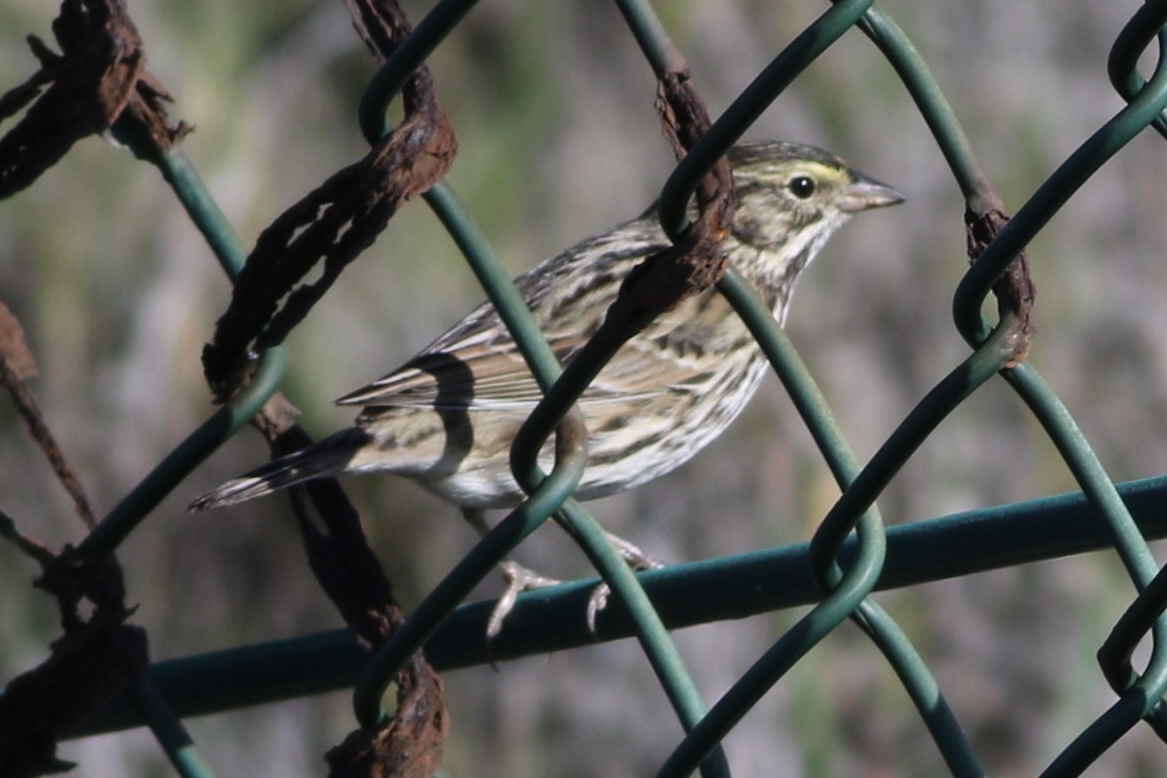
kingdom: Animalia
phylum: Chordata
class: Aves
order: Passeriformes
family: Passerellidae
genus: Passerculus
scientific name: Passerculus sandwichensis
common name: Savannah sparrow
